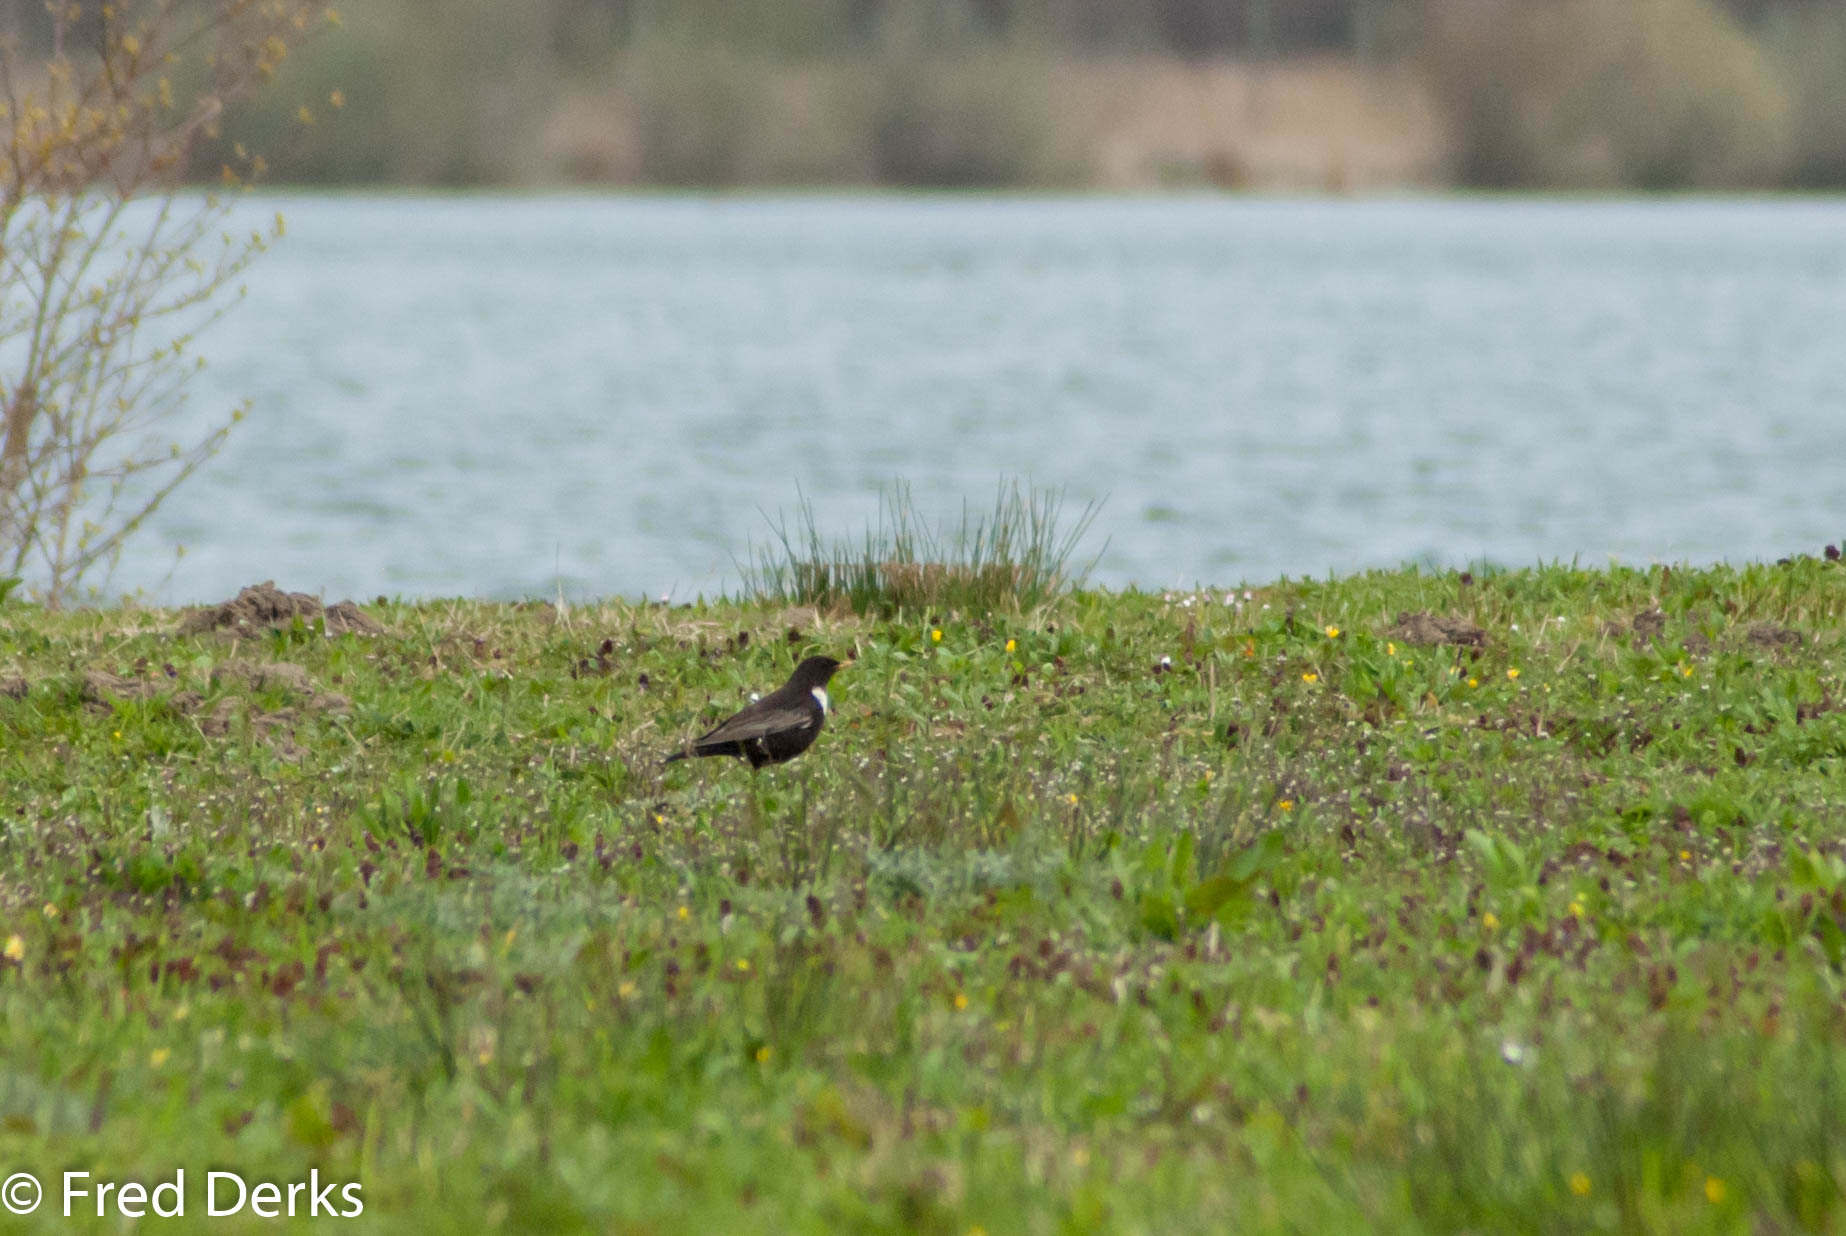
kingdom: Animalia
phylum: Chordata
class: Aves
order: Passeriformes
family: Turdidae
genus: Turdus
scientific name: Turdus torquatus
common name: Ring ouzel
